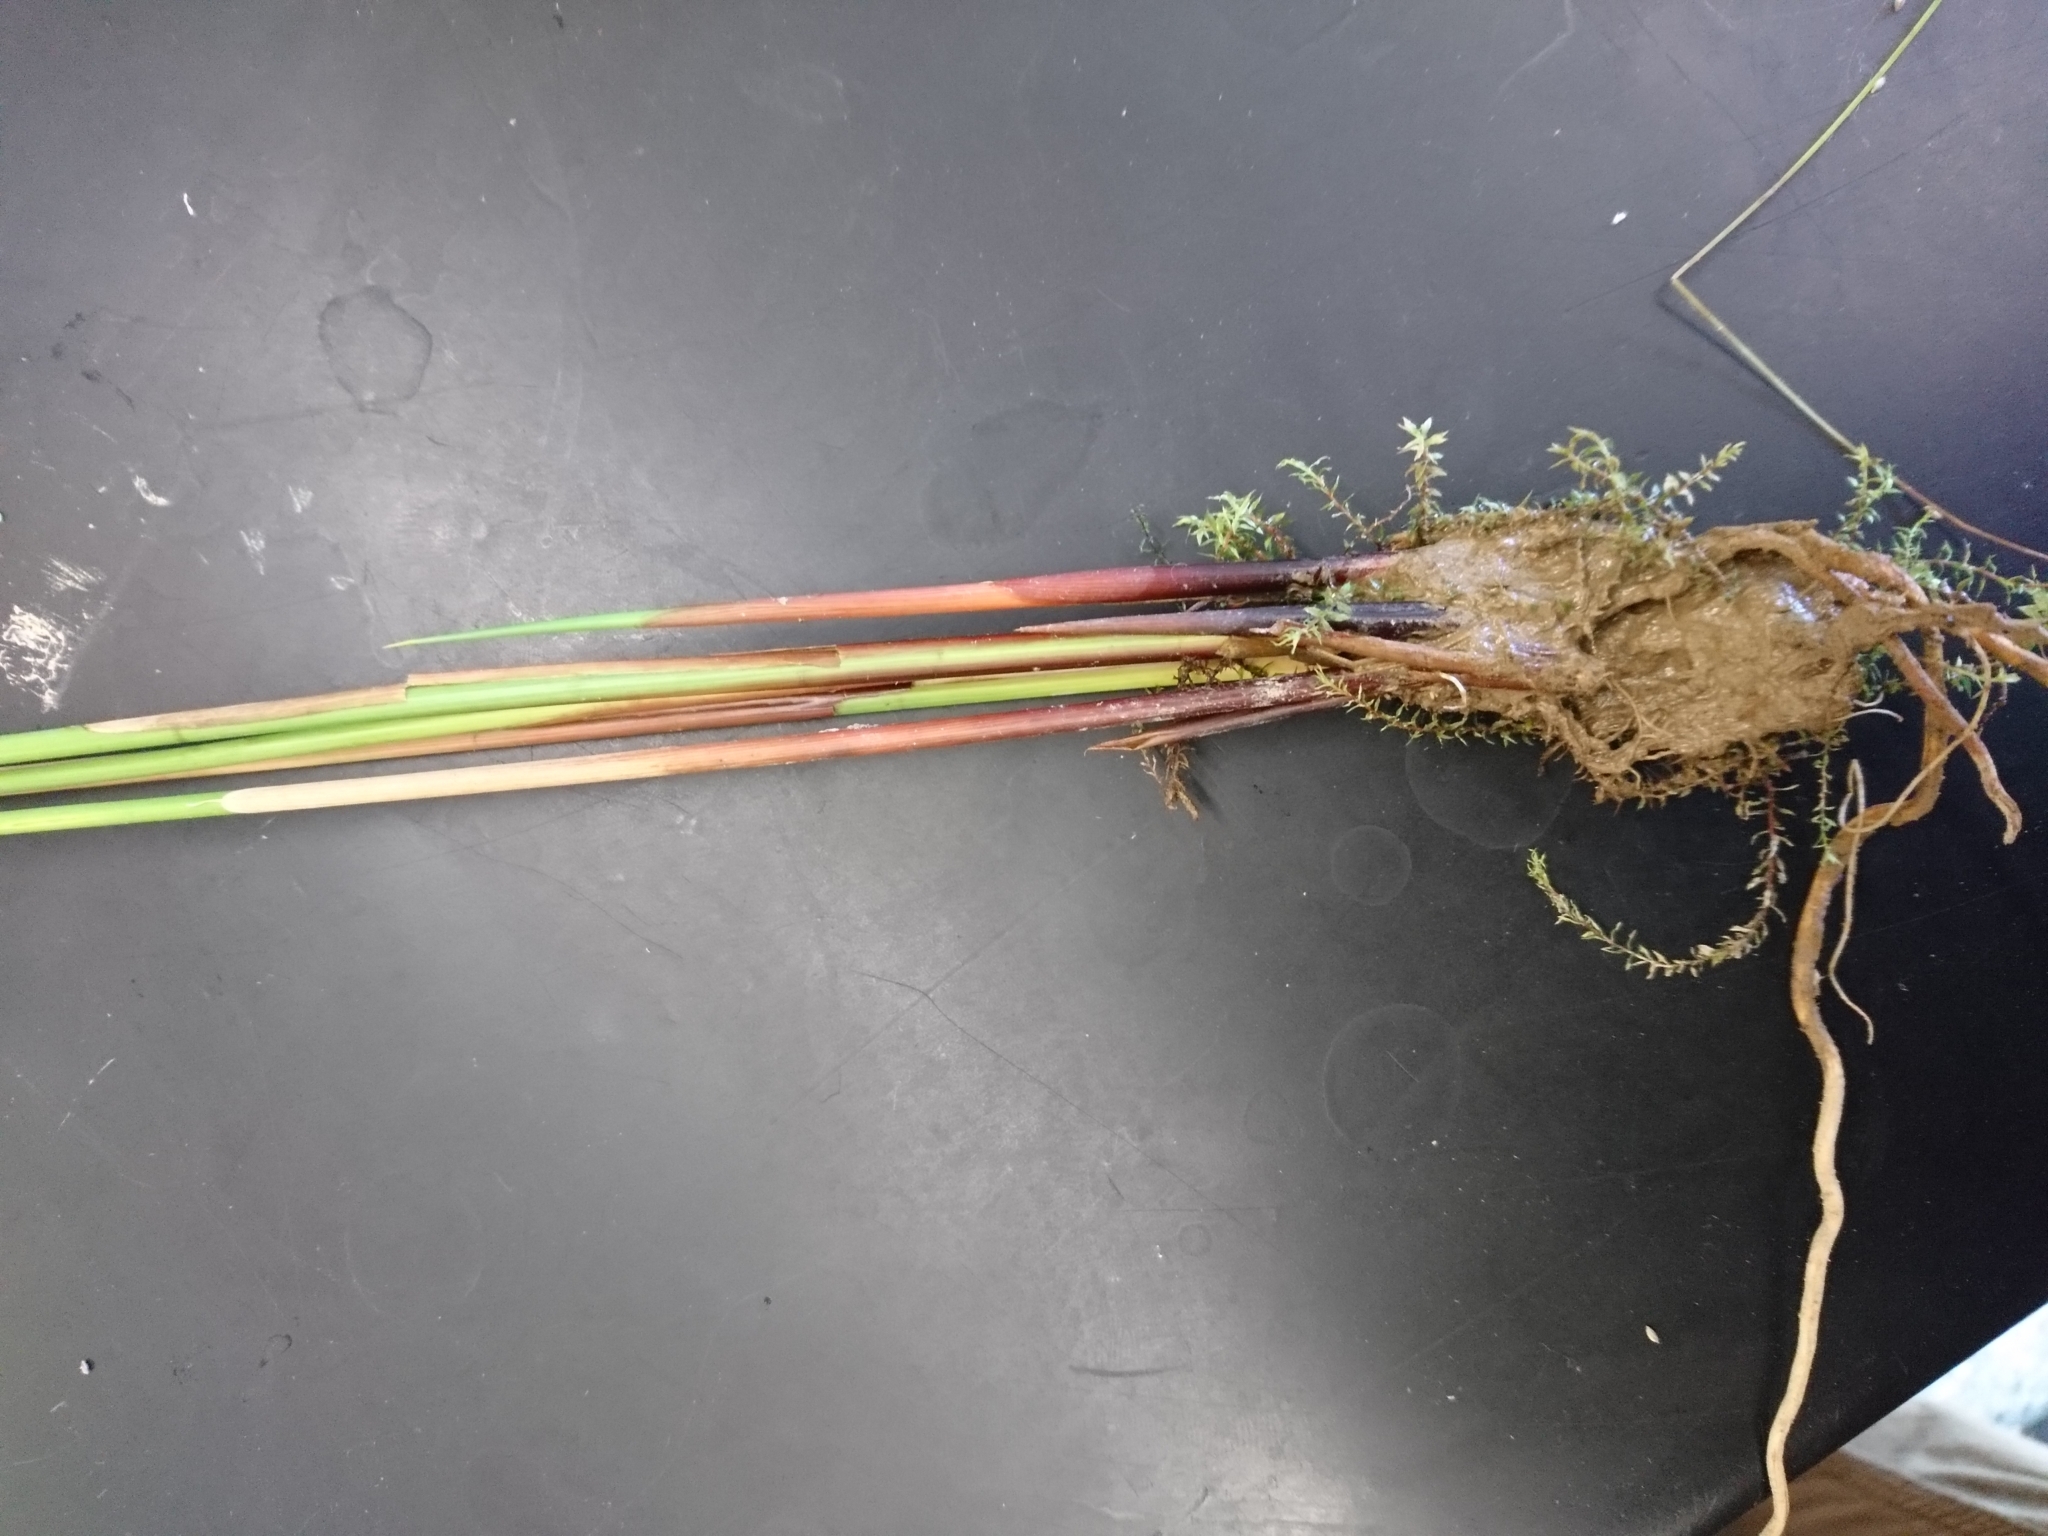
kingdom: Plantae
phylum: Tracheophyta
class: Liliopsida
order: Poales
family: Juncaceae
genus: Juncus
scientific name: Juncus effusus
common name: Soft rush
